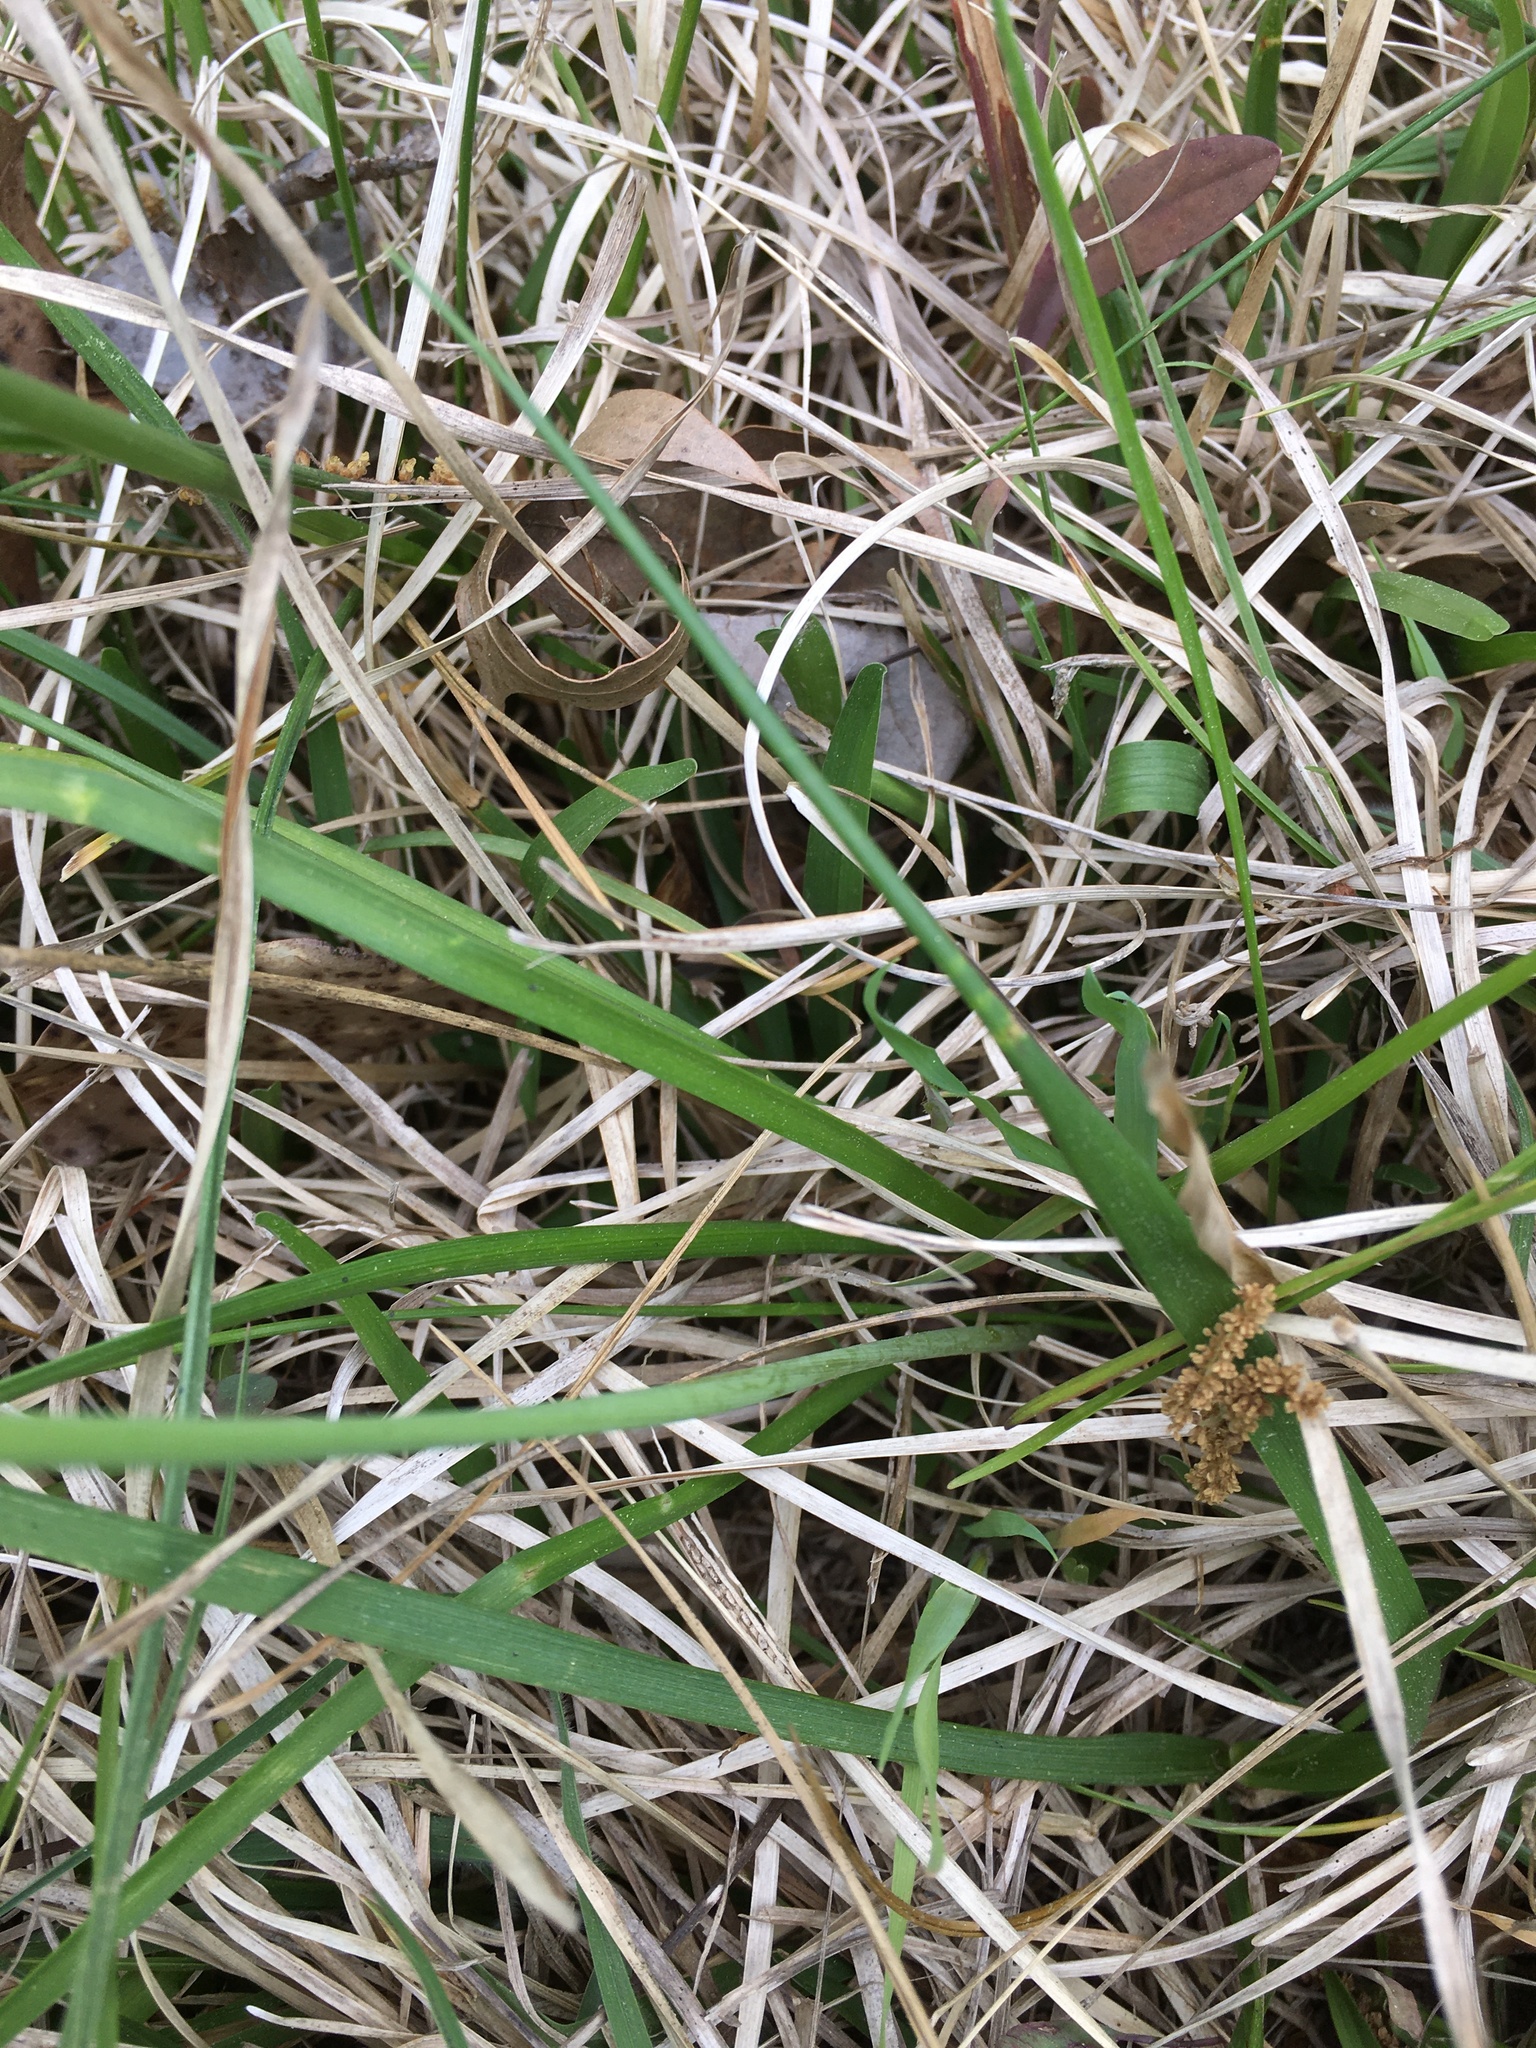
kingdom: Plantae
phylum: Tracheophyta
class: Liliopsida
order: Asparagales
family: Amaryllidaceae
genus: Nothoscordum
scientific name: Nothoscordum bivalve
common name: Crow-poison
